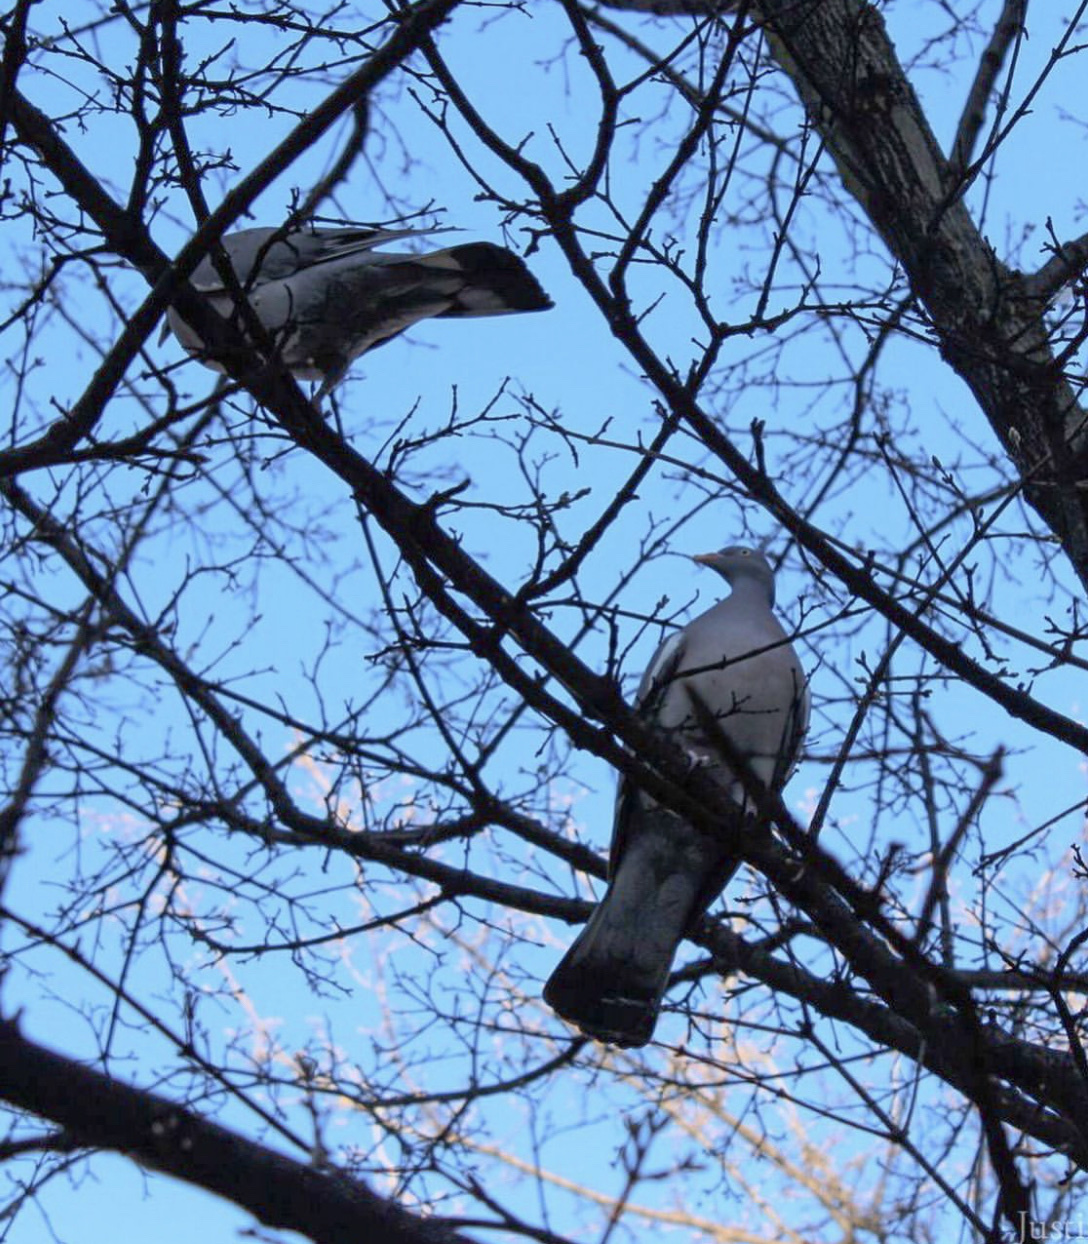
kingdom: Animalia
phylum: Chordata
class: Aves
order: Columbiformes
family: Columbidae
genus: Columba
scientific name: Columba palumbus
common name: Common wood pigeon
